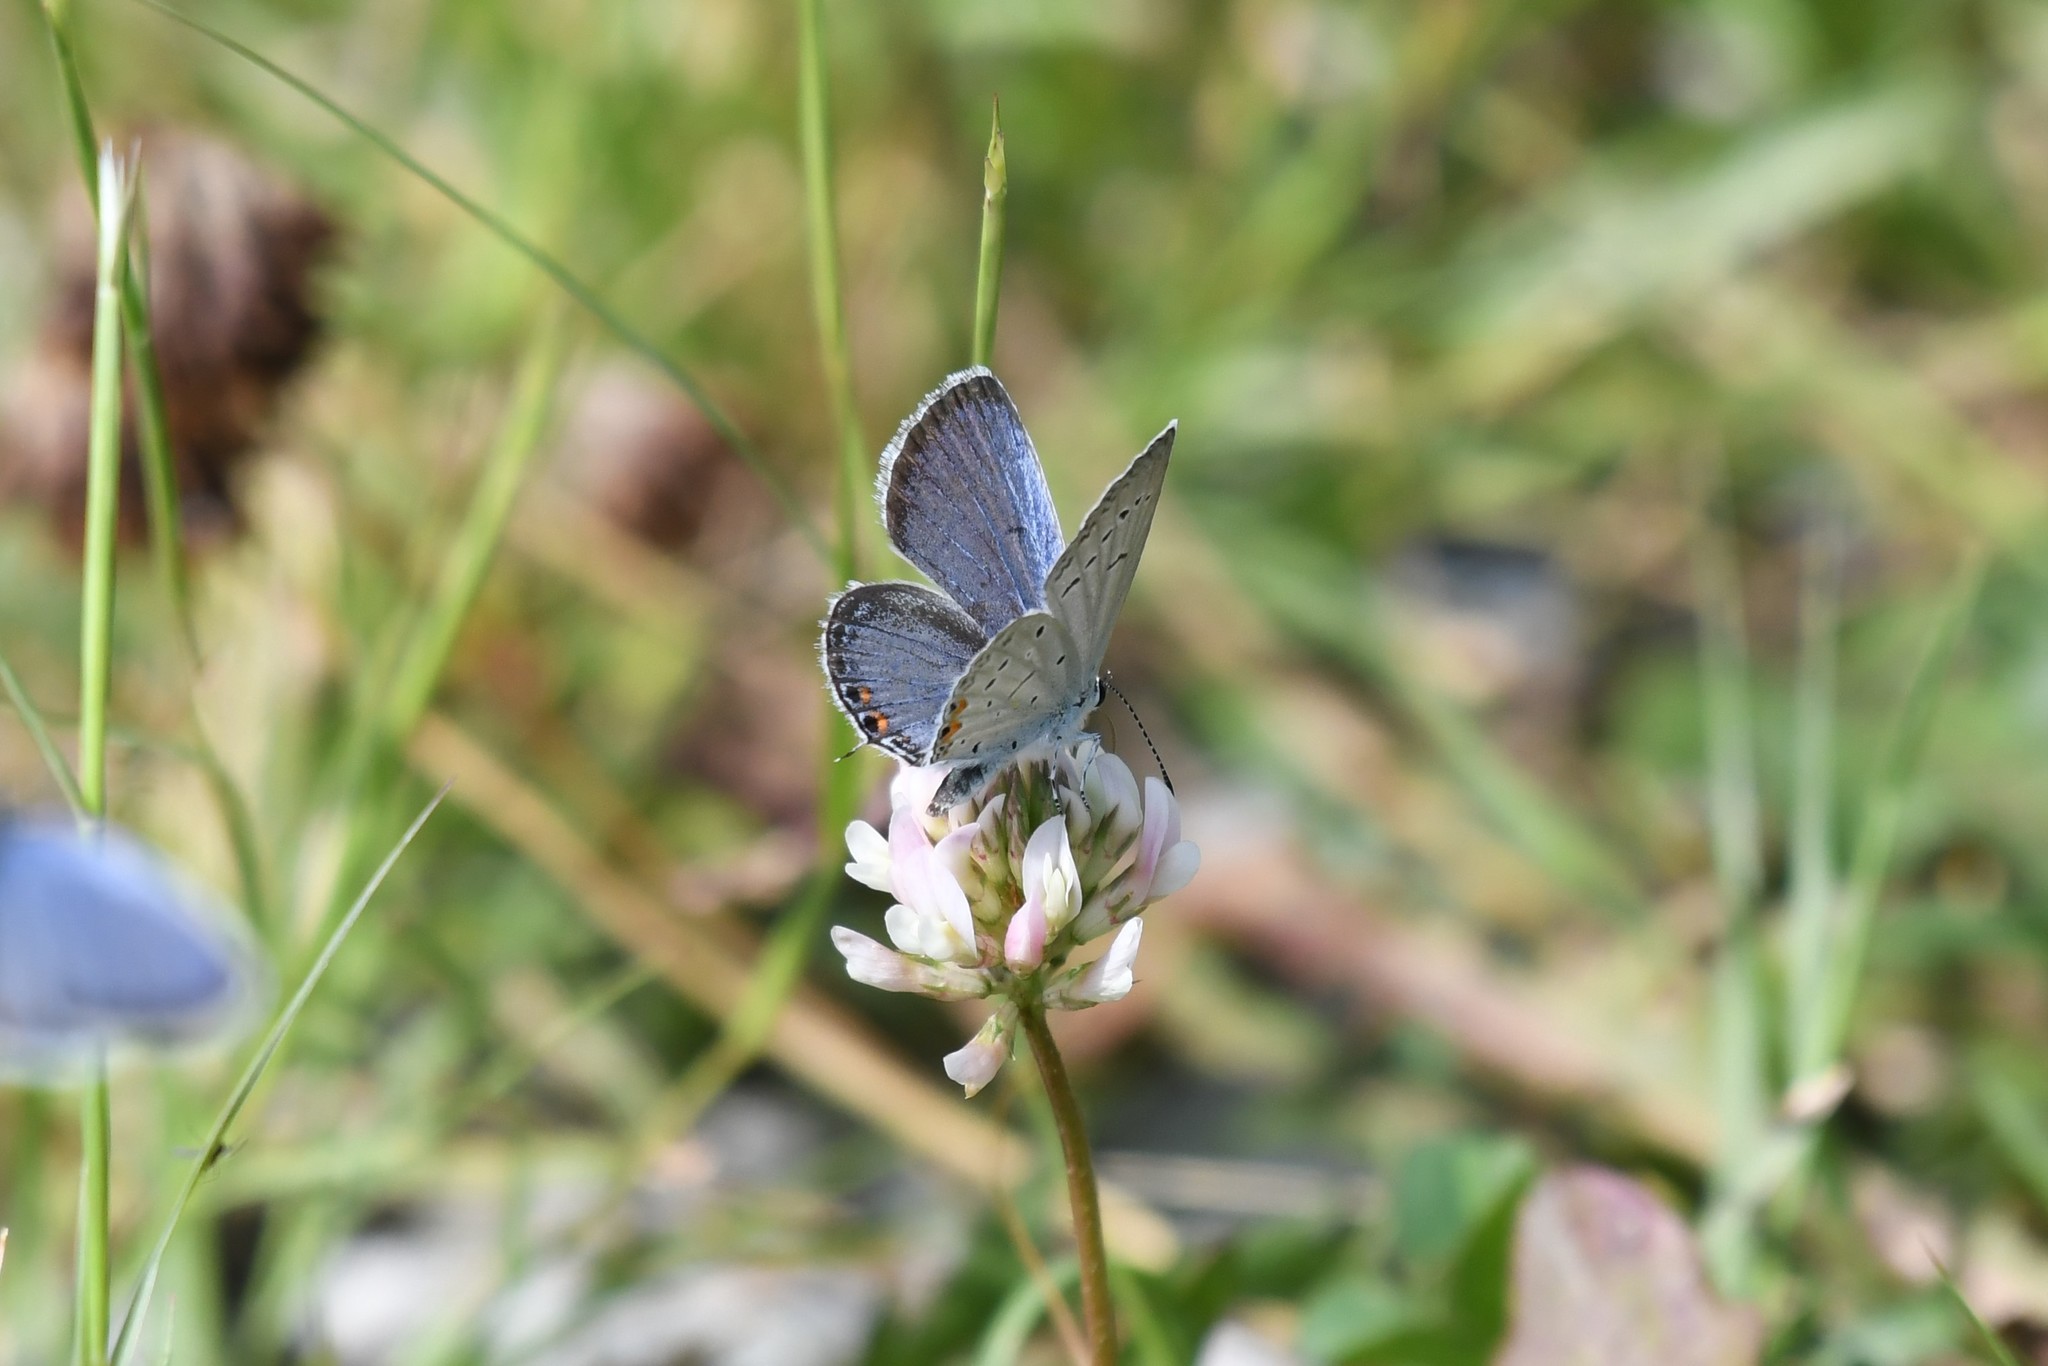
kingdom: Animalia
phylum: Arthropoda
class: Insecta
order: Lepidoptera
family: Lycaenidae
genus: Elkalyce
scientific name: Elkalyce comyntas
